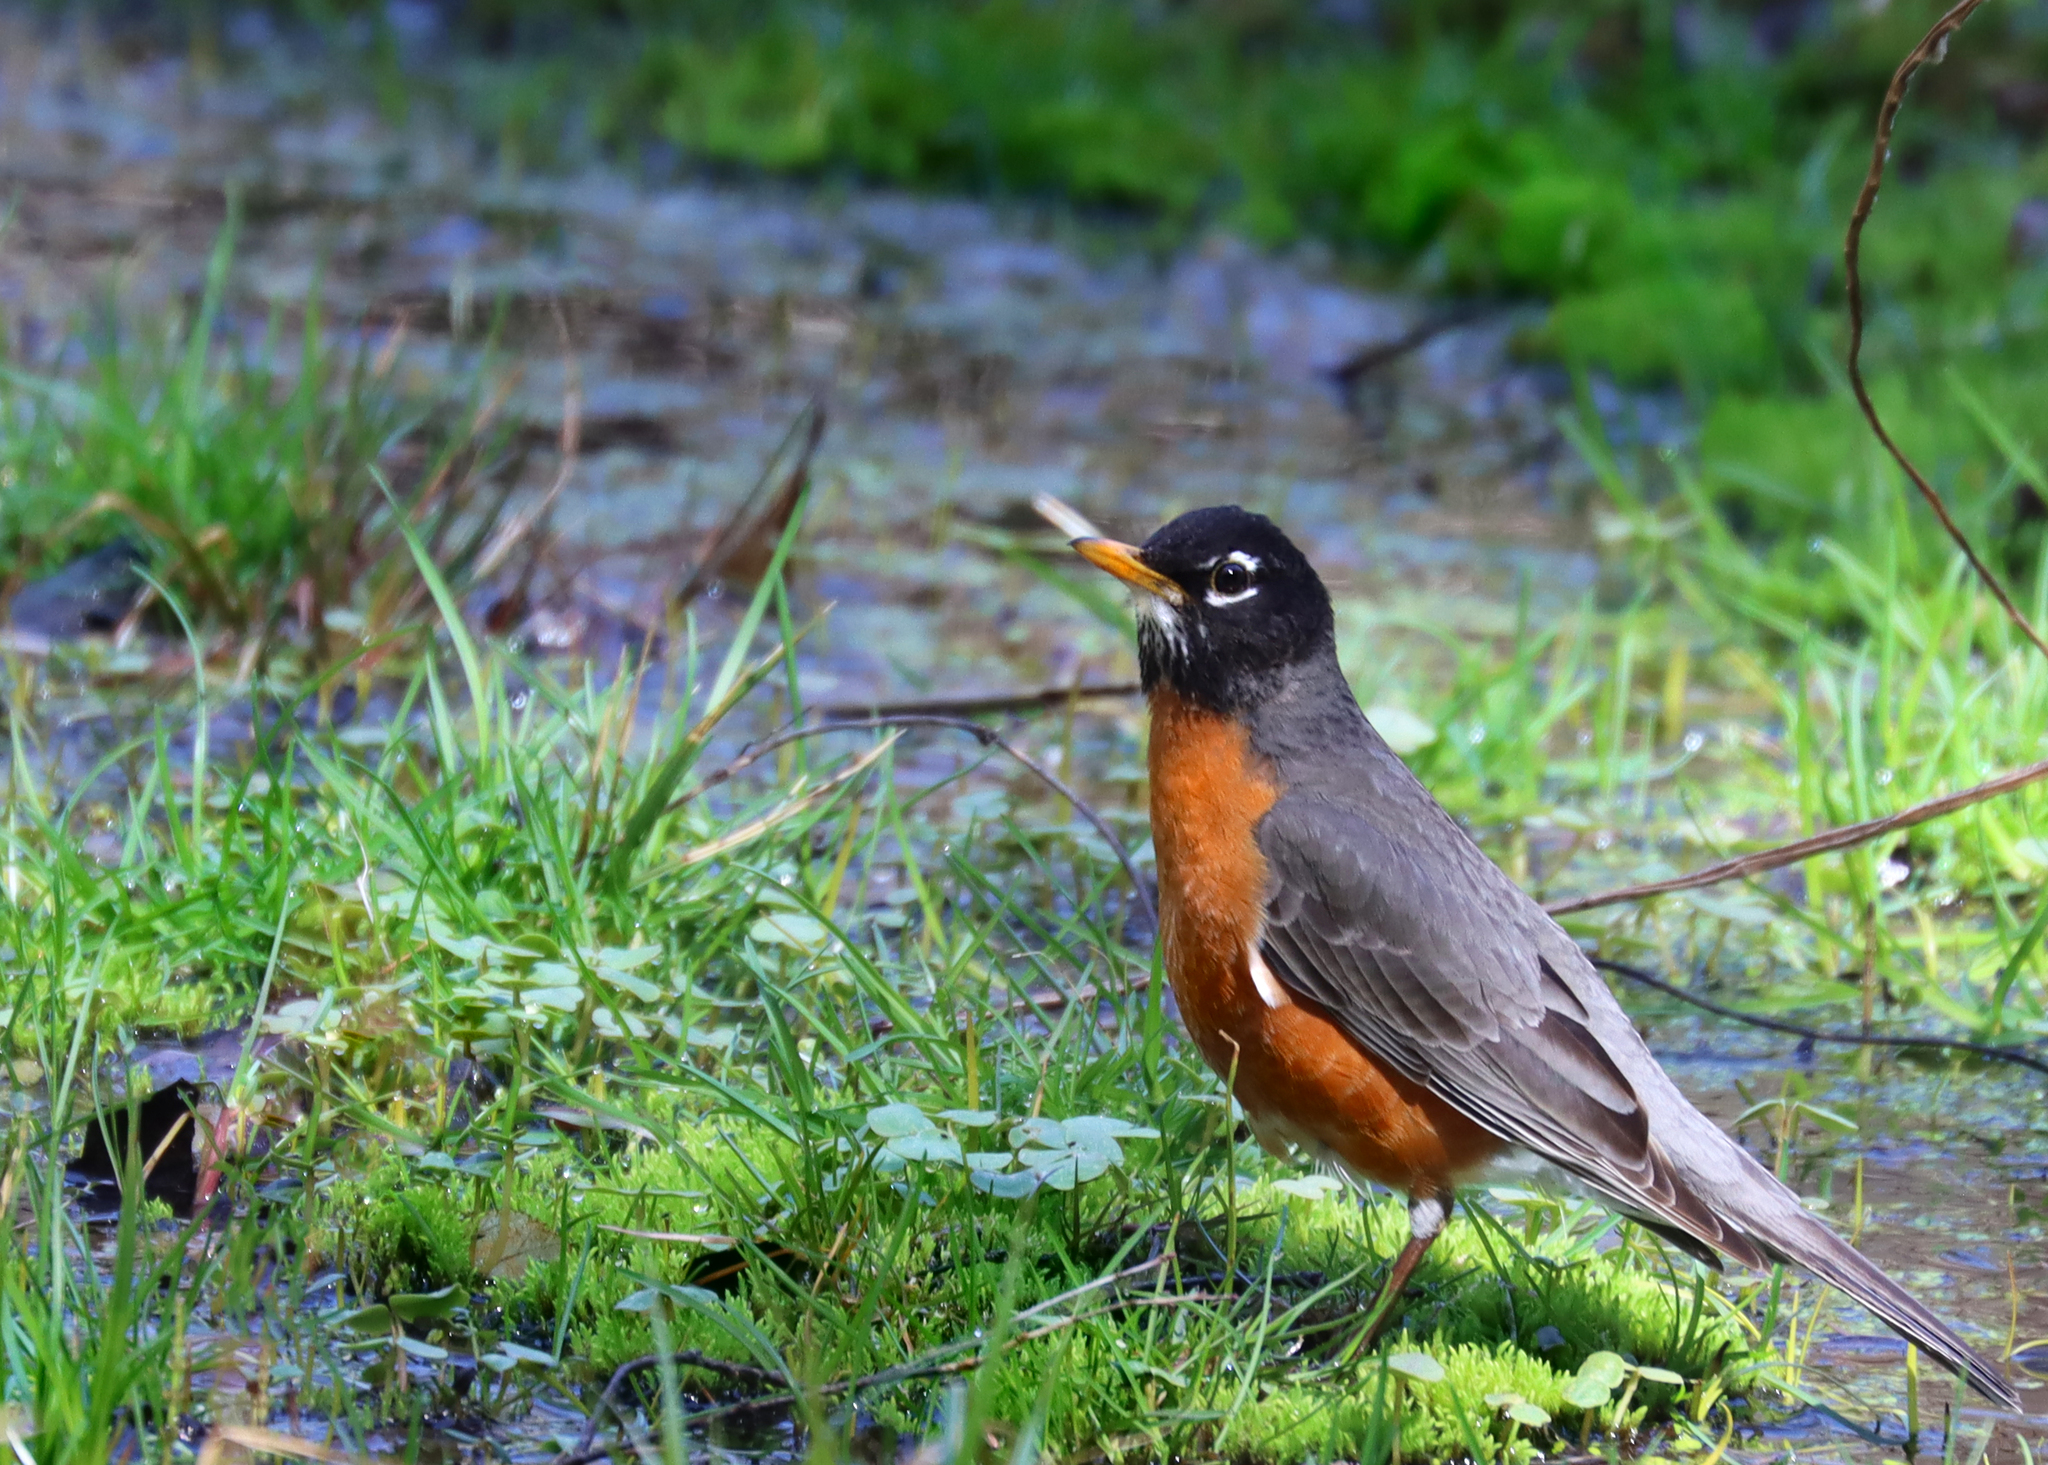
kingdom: Animalia
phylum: Chordata
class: Aves
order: Passeriformes
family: Turdidae
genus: Turdus
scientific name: Turdus migratorius
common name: American robin
